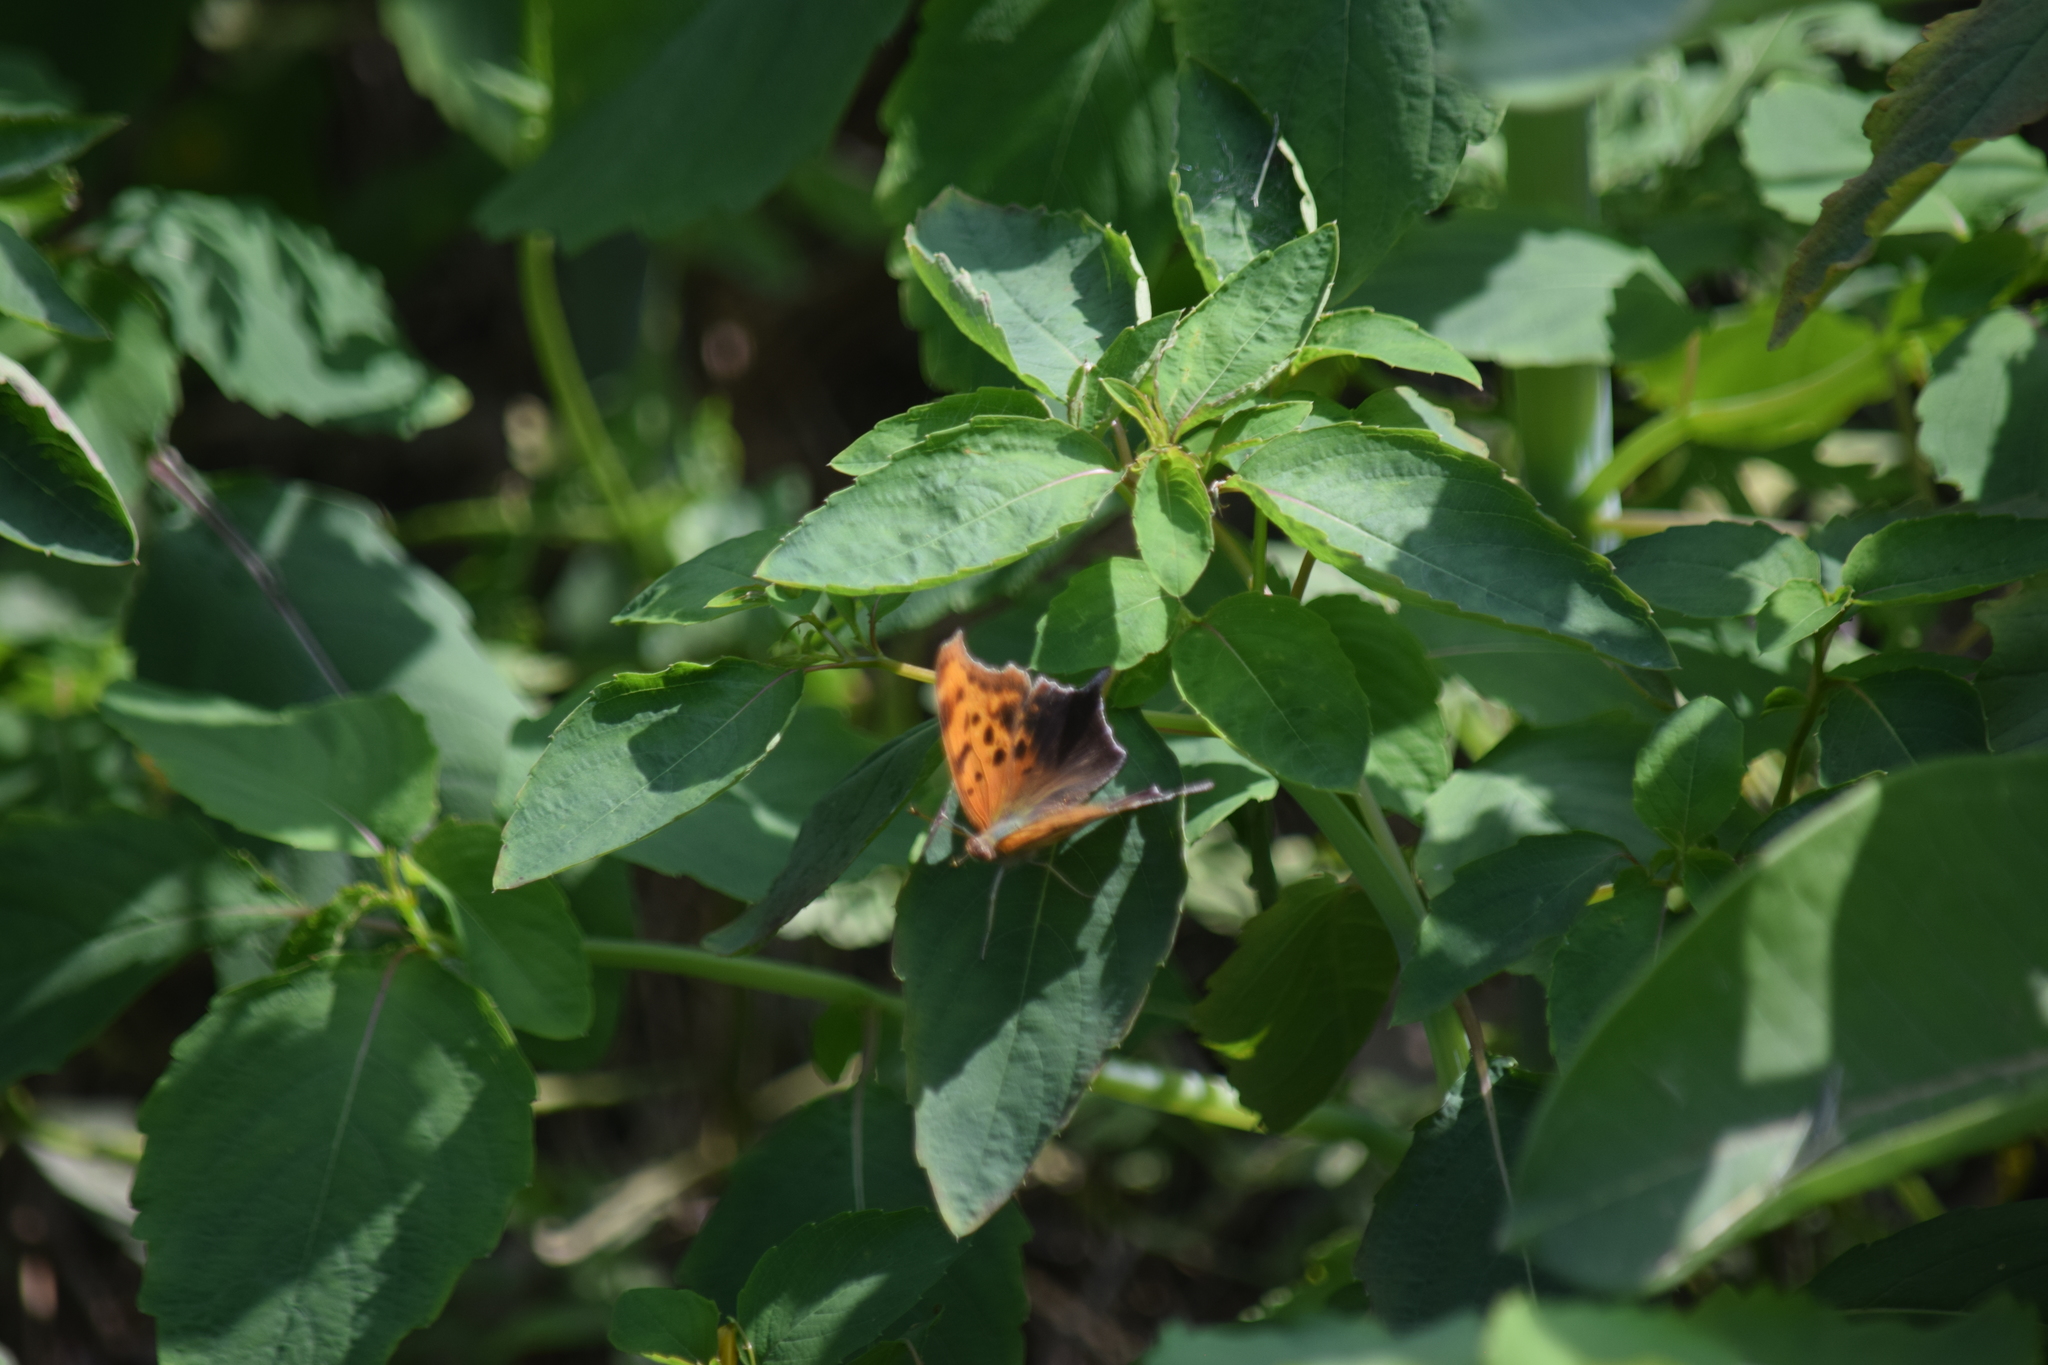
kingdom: Animalia
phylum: Arthropoda
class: Insecta
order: Lepidoptera
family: Nymphalidae
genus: Polygonia
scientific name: Polygonia interrogationis
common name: Question mark
